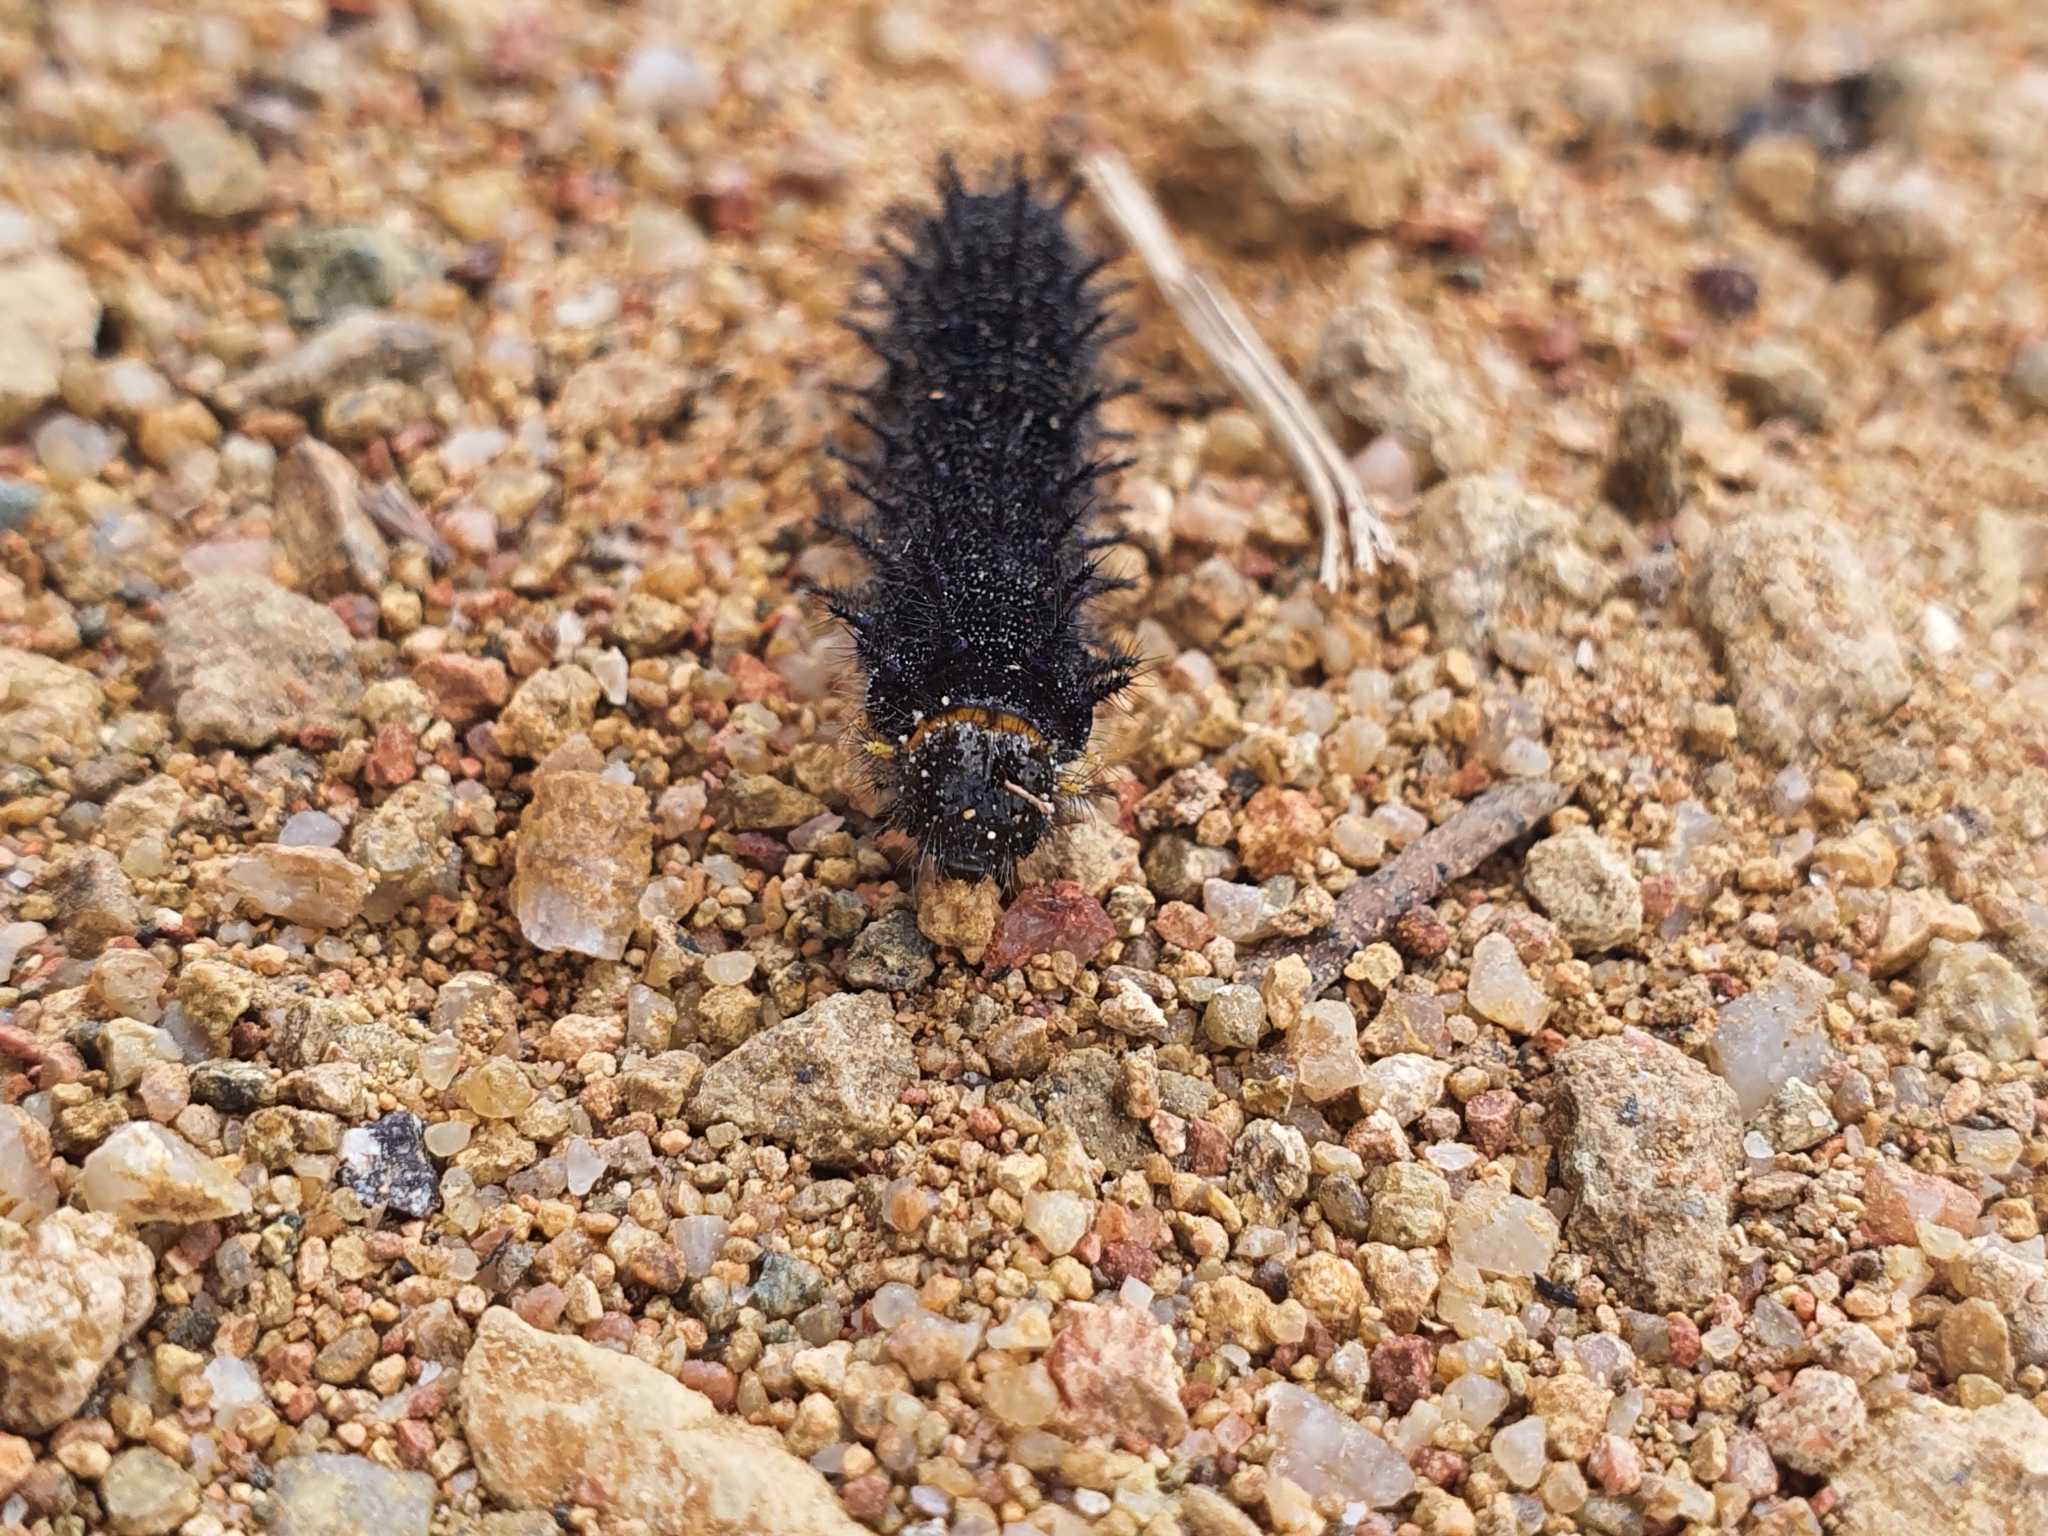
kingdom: Animalia
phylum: Arthropoda
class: Insecta
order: Lepidoptera
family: Nymphalidae
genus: Junonia
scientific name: Junonia villida
